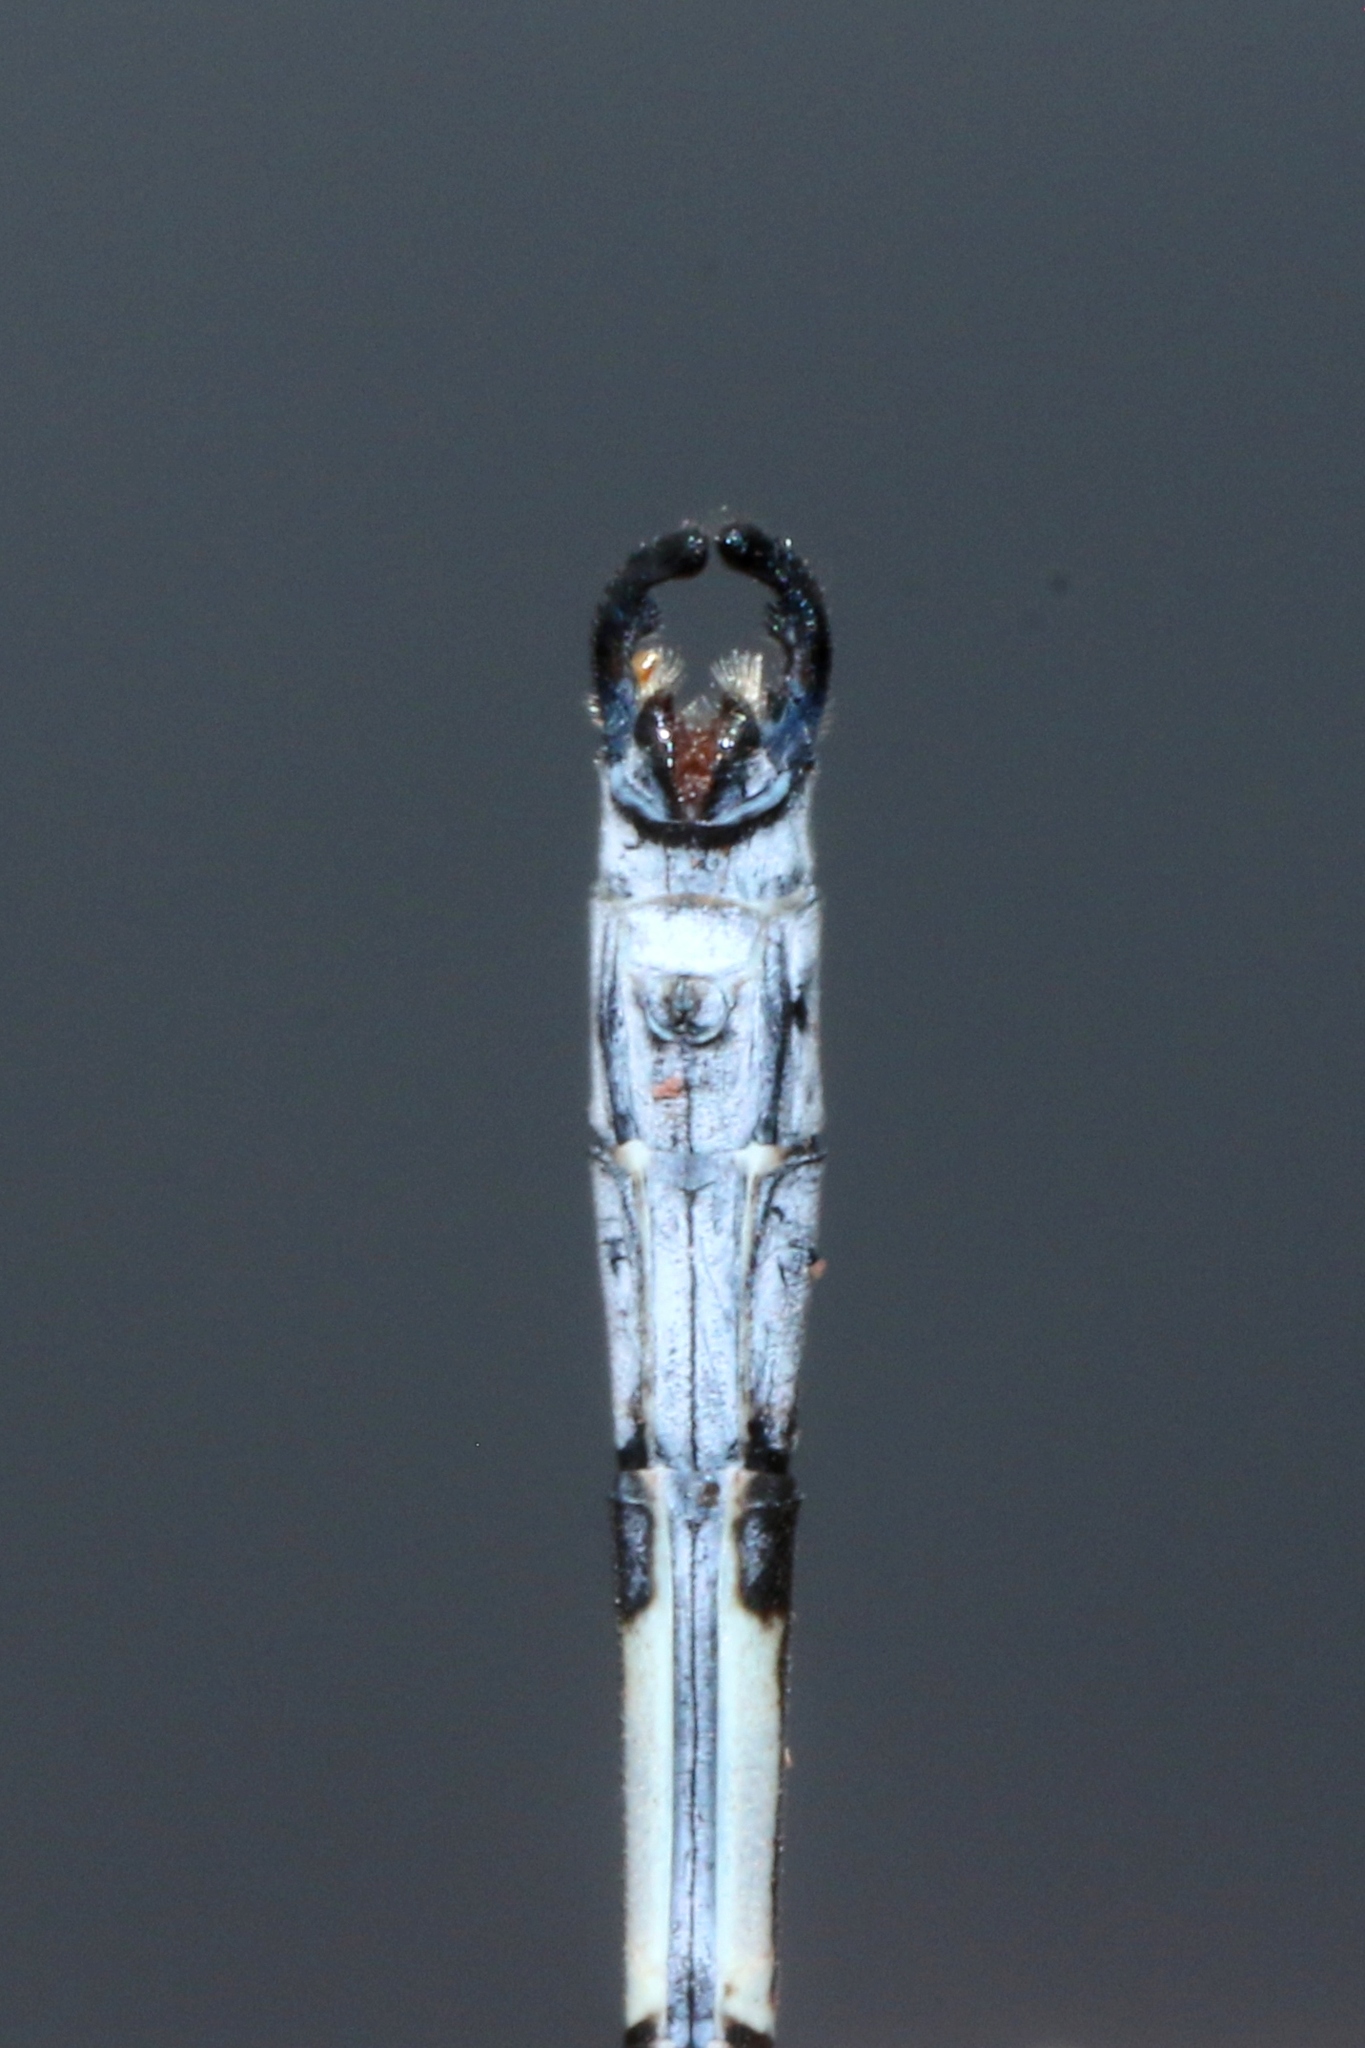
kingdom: Animalia
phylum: Arthropoda
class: Insecta
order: Odonata
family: Lestidae
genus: Lestes
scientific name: Lestes eurinus
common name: Amber-winged spreadwing
